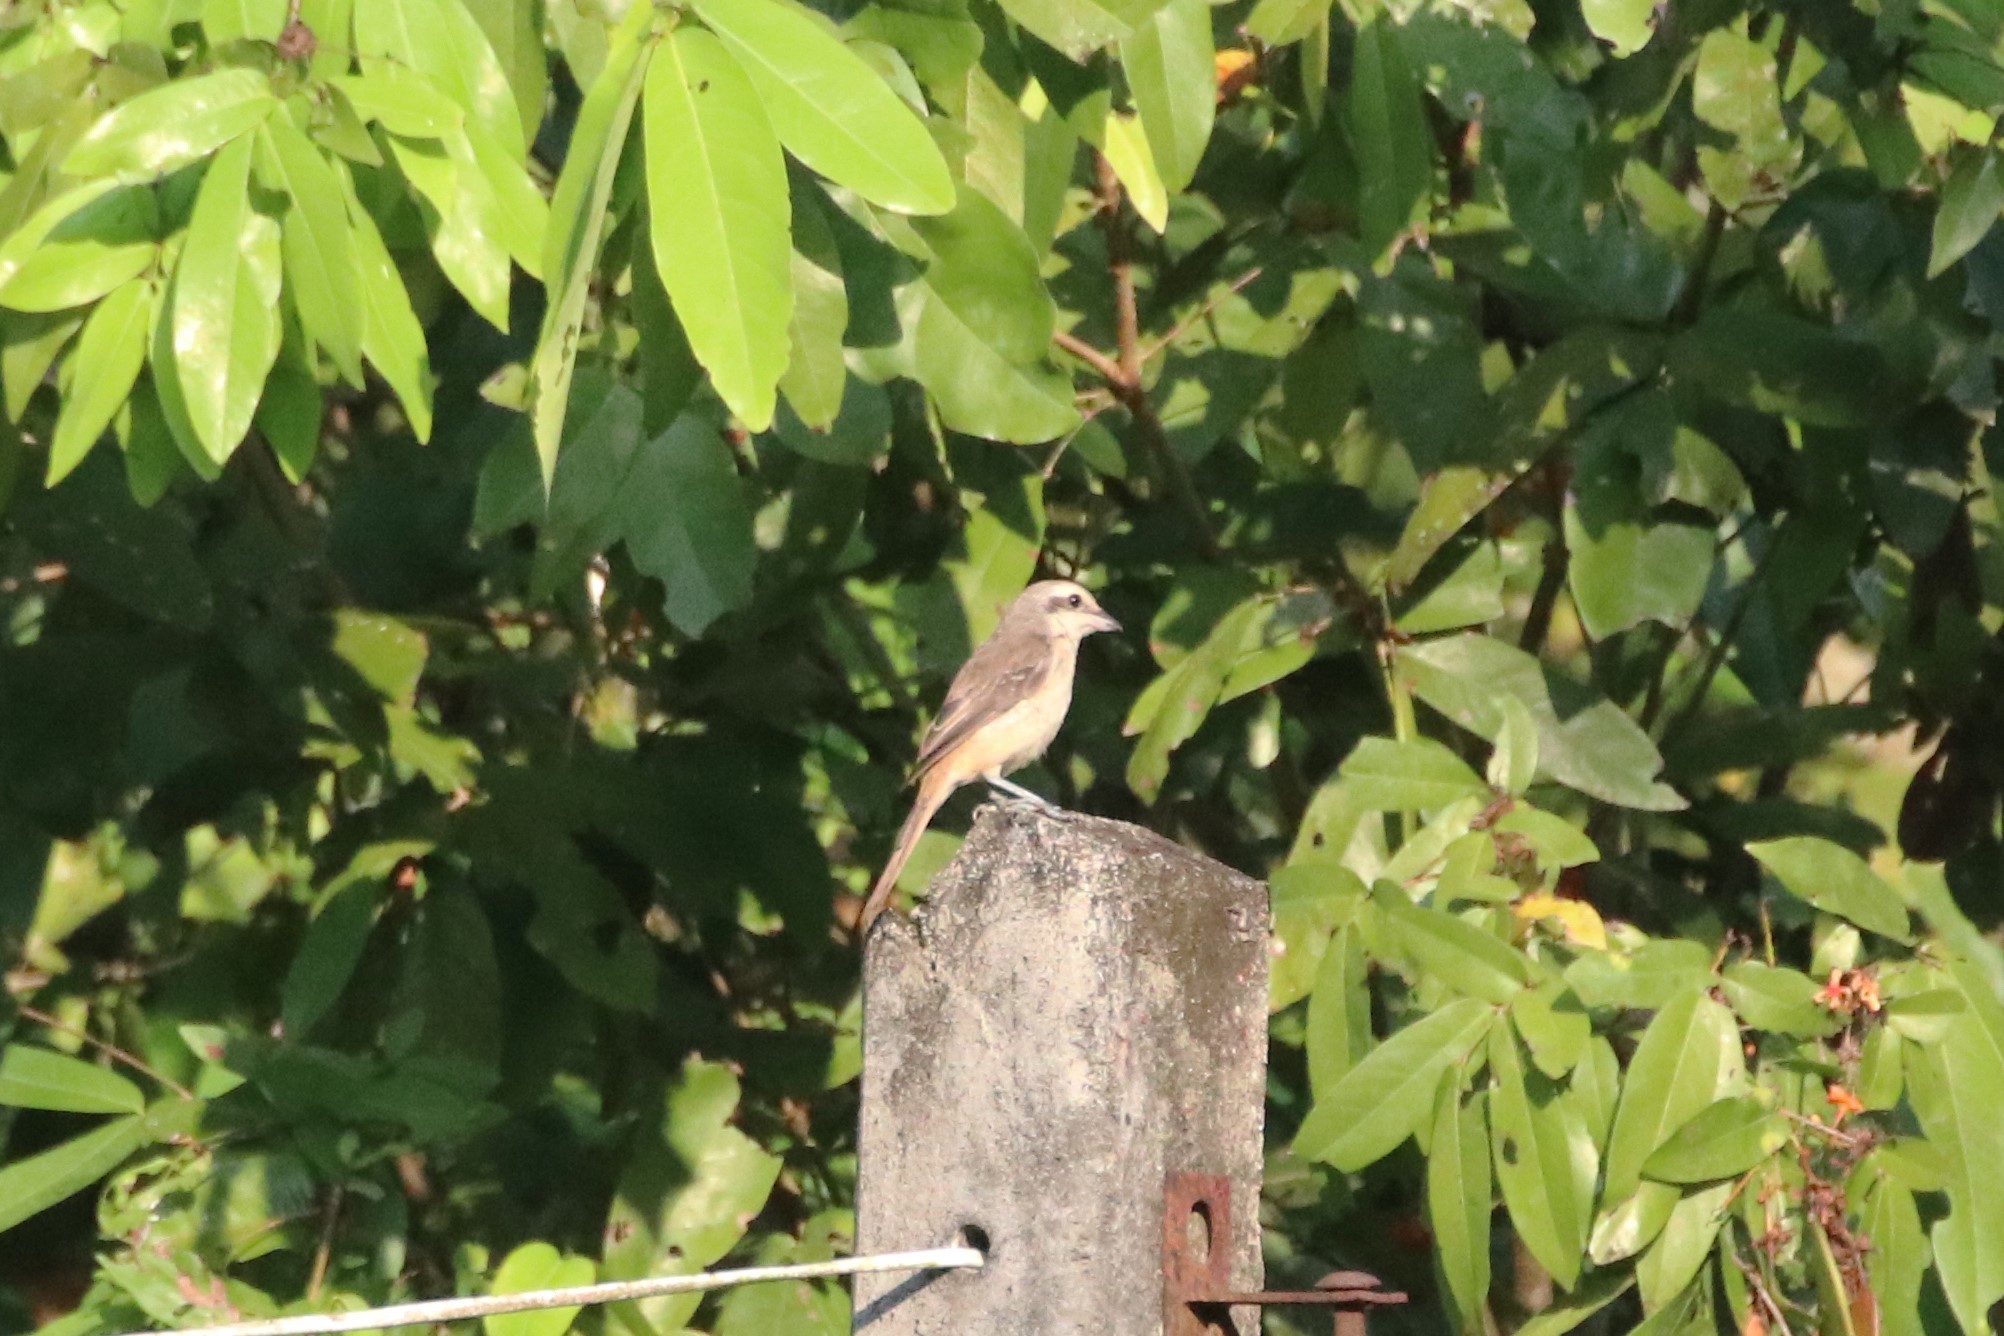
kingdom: Animalia
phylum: Chordata
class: Aves
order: Passeriformes
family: Laniidae
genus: Lanius
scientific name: Lanius cristatus
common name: Brown shrike
